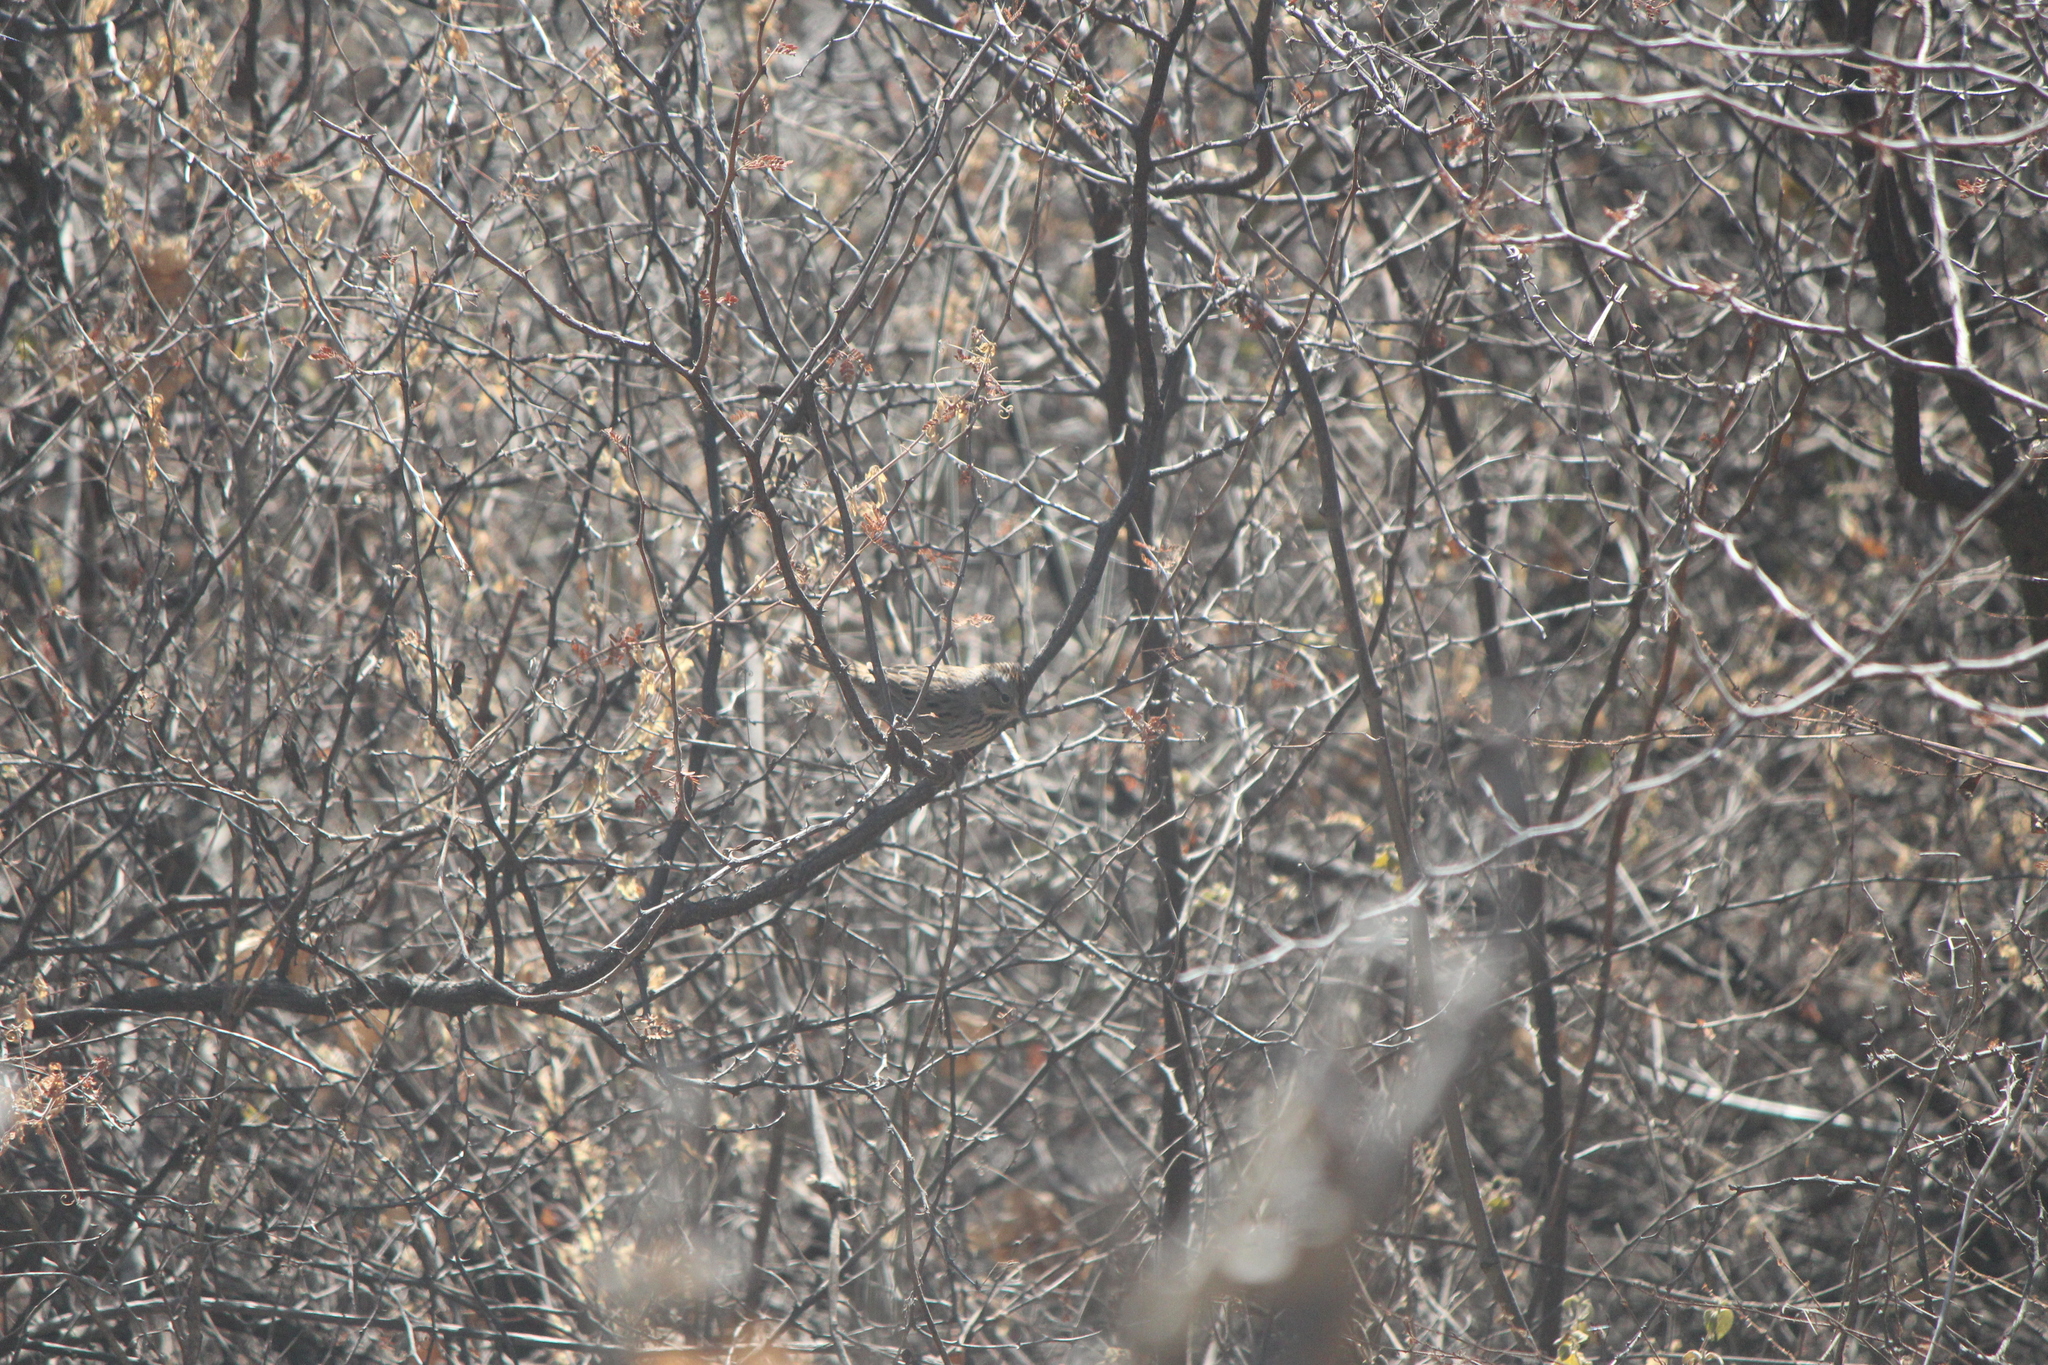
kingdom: Animalia
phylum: Chordata
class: Aves
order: Passeriformes
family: Passerellidae
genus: Melospiza
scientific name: Melospiza lincolnii
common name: Lincoln's sparrow
